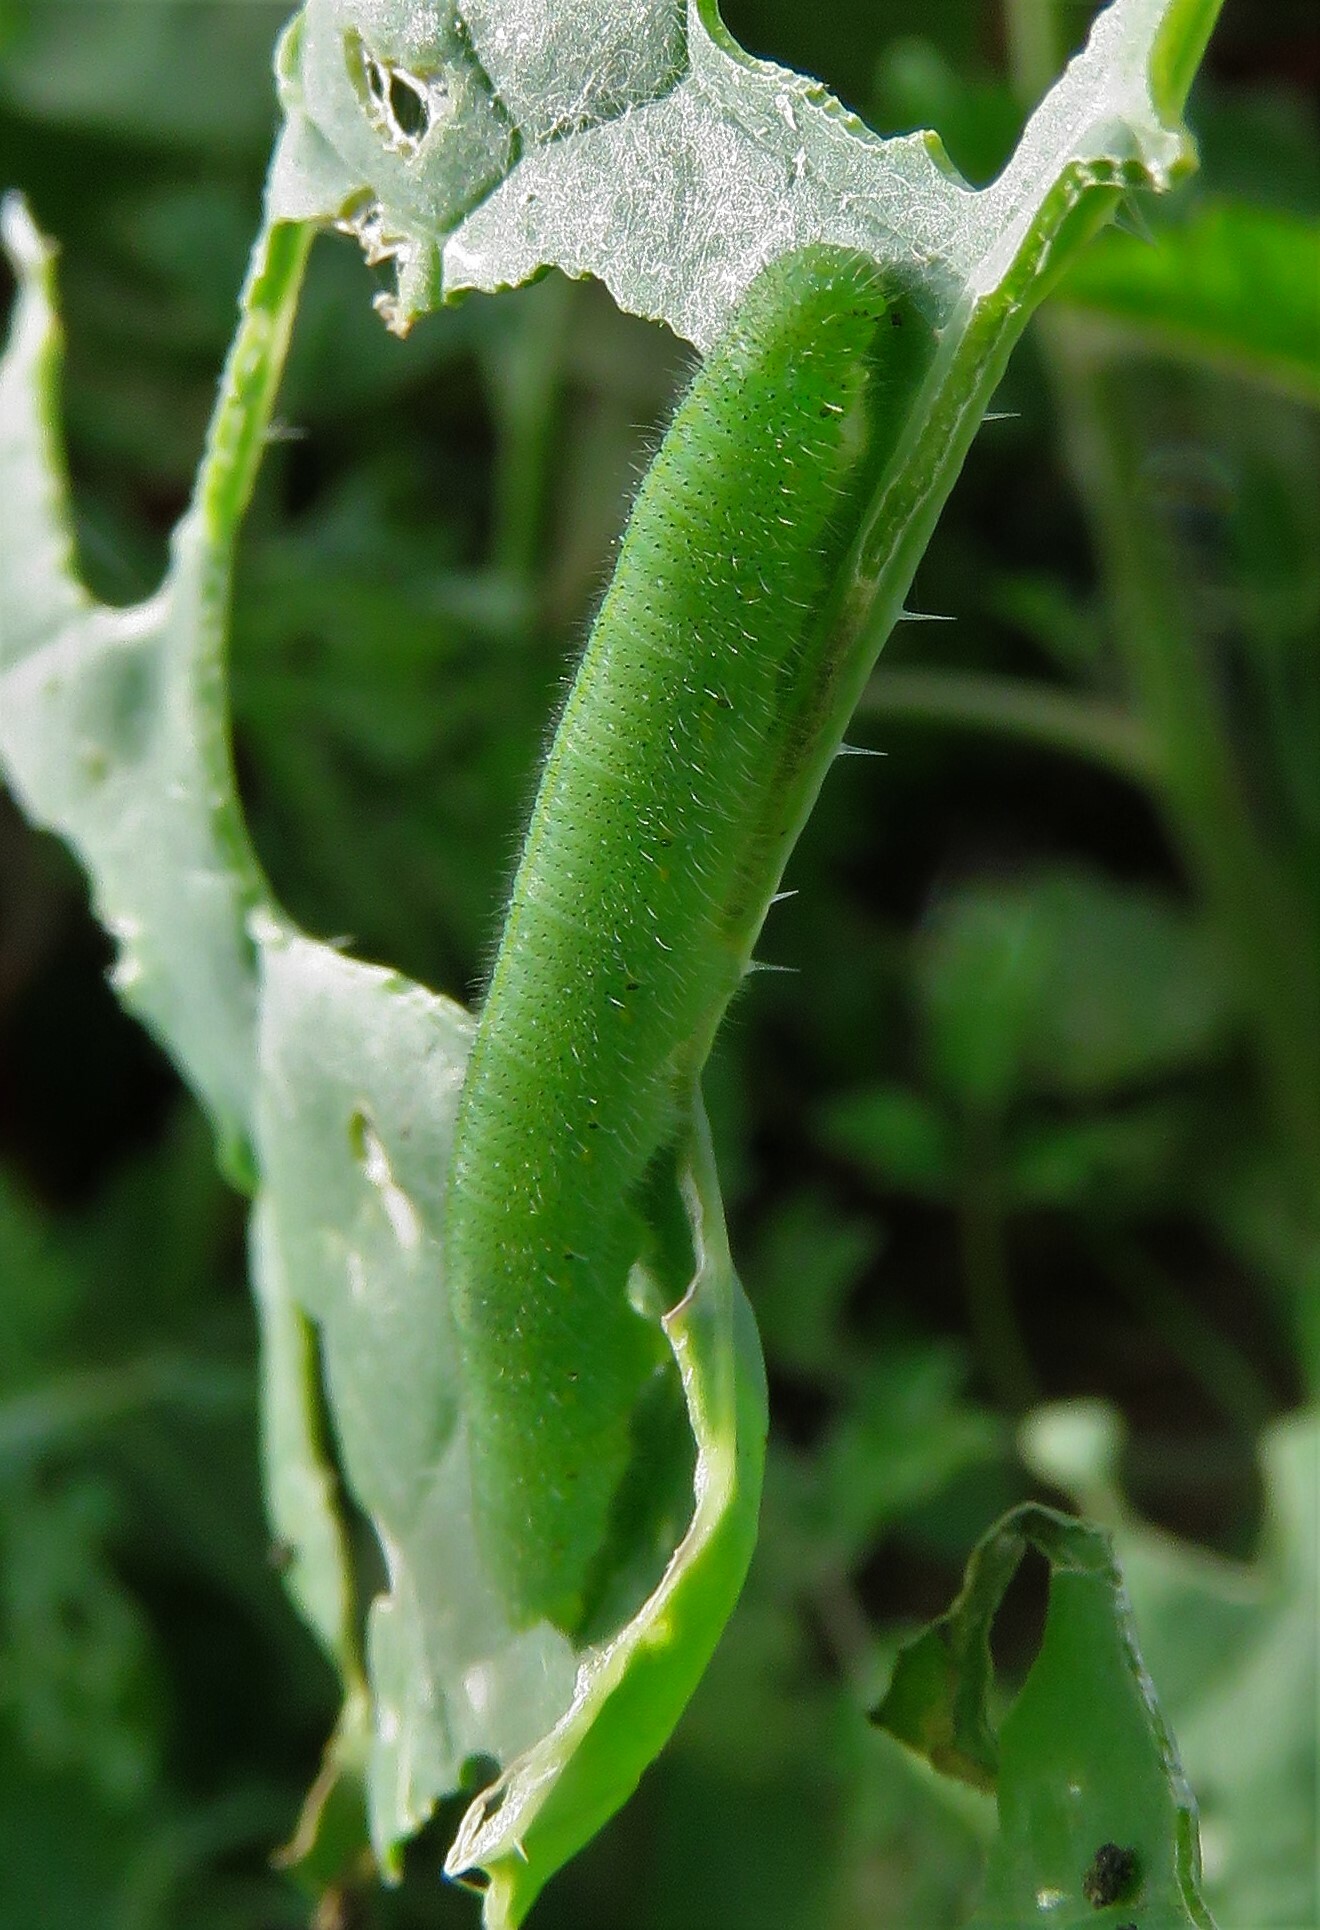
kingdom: Animalia
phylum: Arthropoda
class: Insecta
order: Lepidoptera
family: Pieridae
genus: Pieris
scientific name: Pieris rapae
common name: Small white
